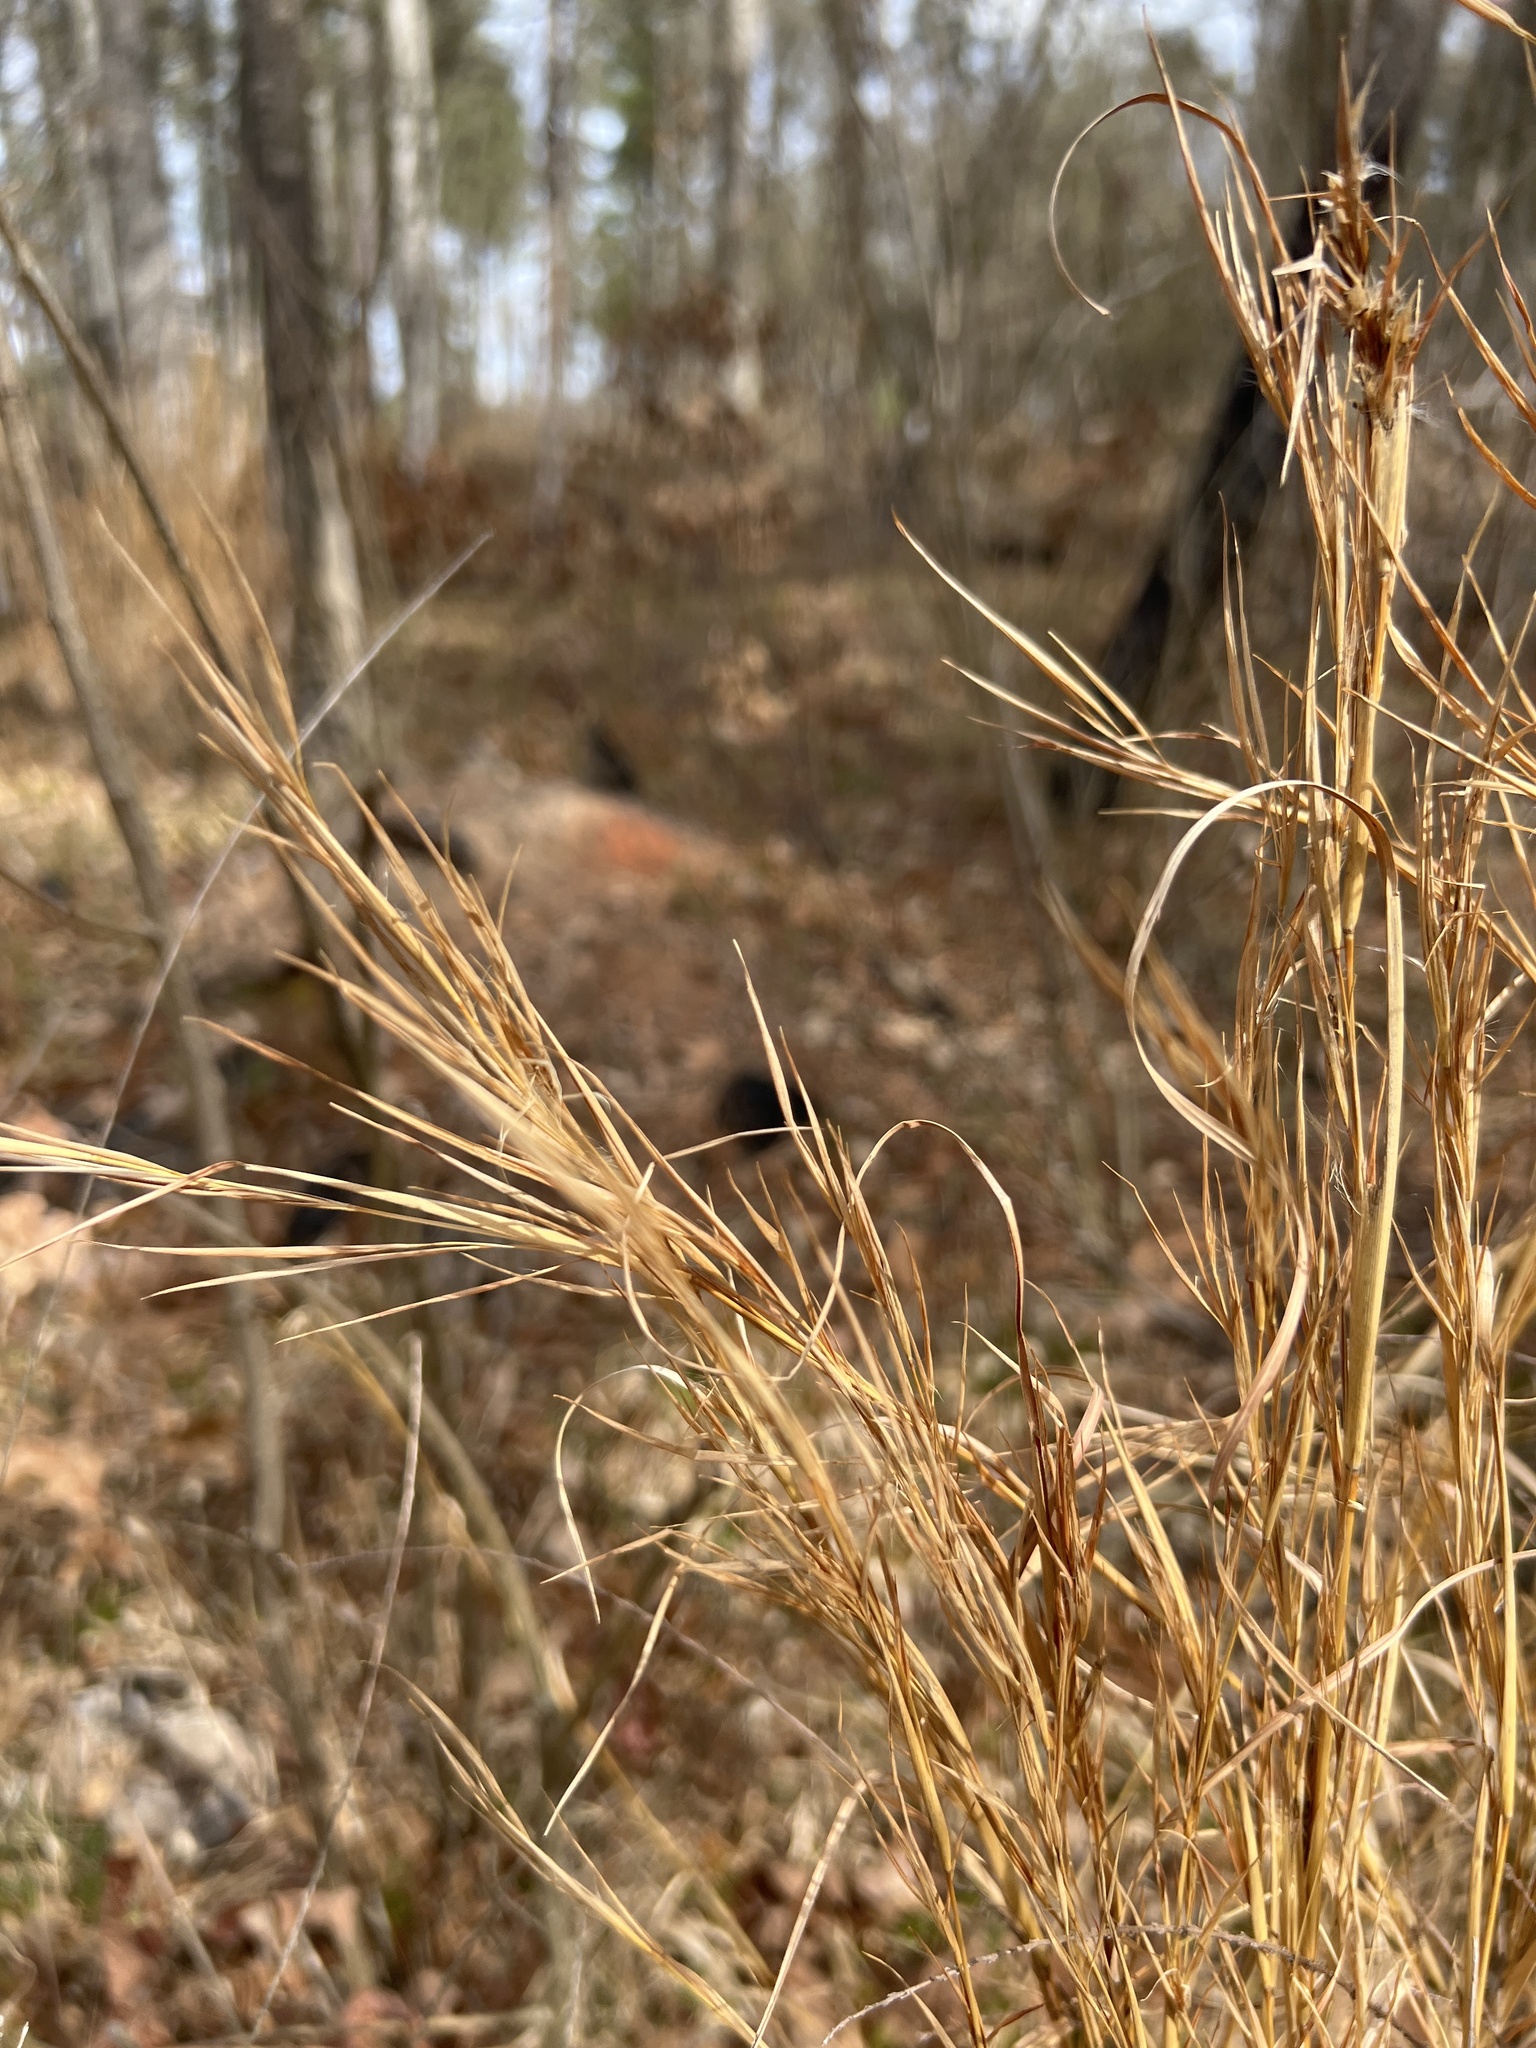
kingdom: Plantae
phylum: Tracheophyta
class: Liliopsida
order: Poales
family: Poaceae
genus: Andropogon
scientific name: Andropogon virginicus
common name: Broomsedge bluestem
